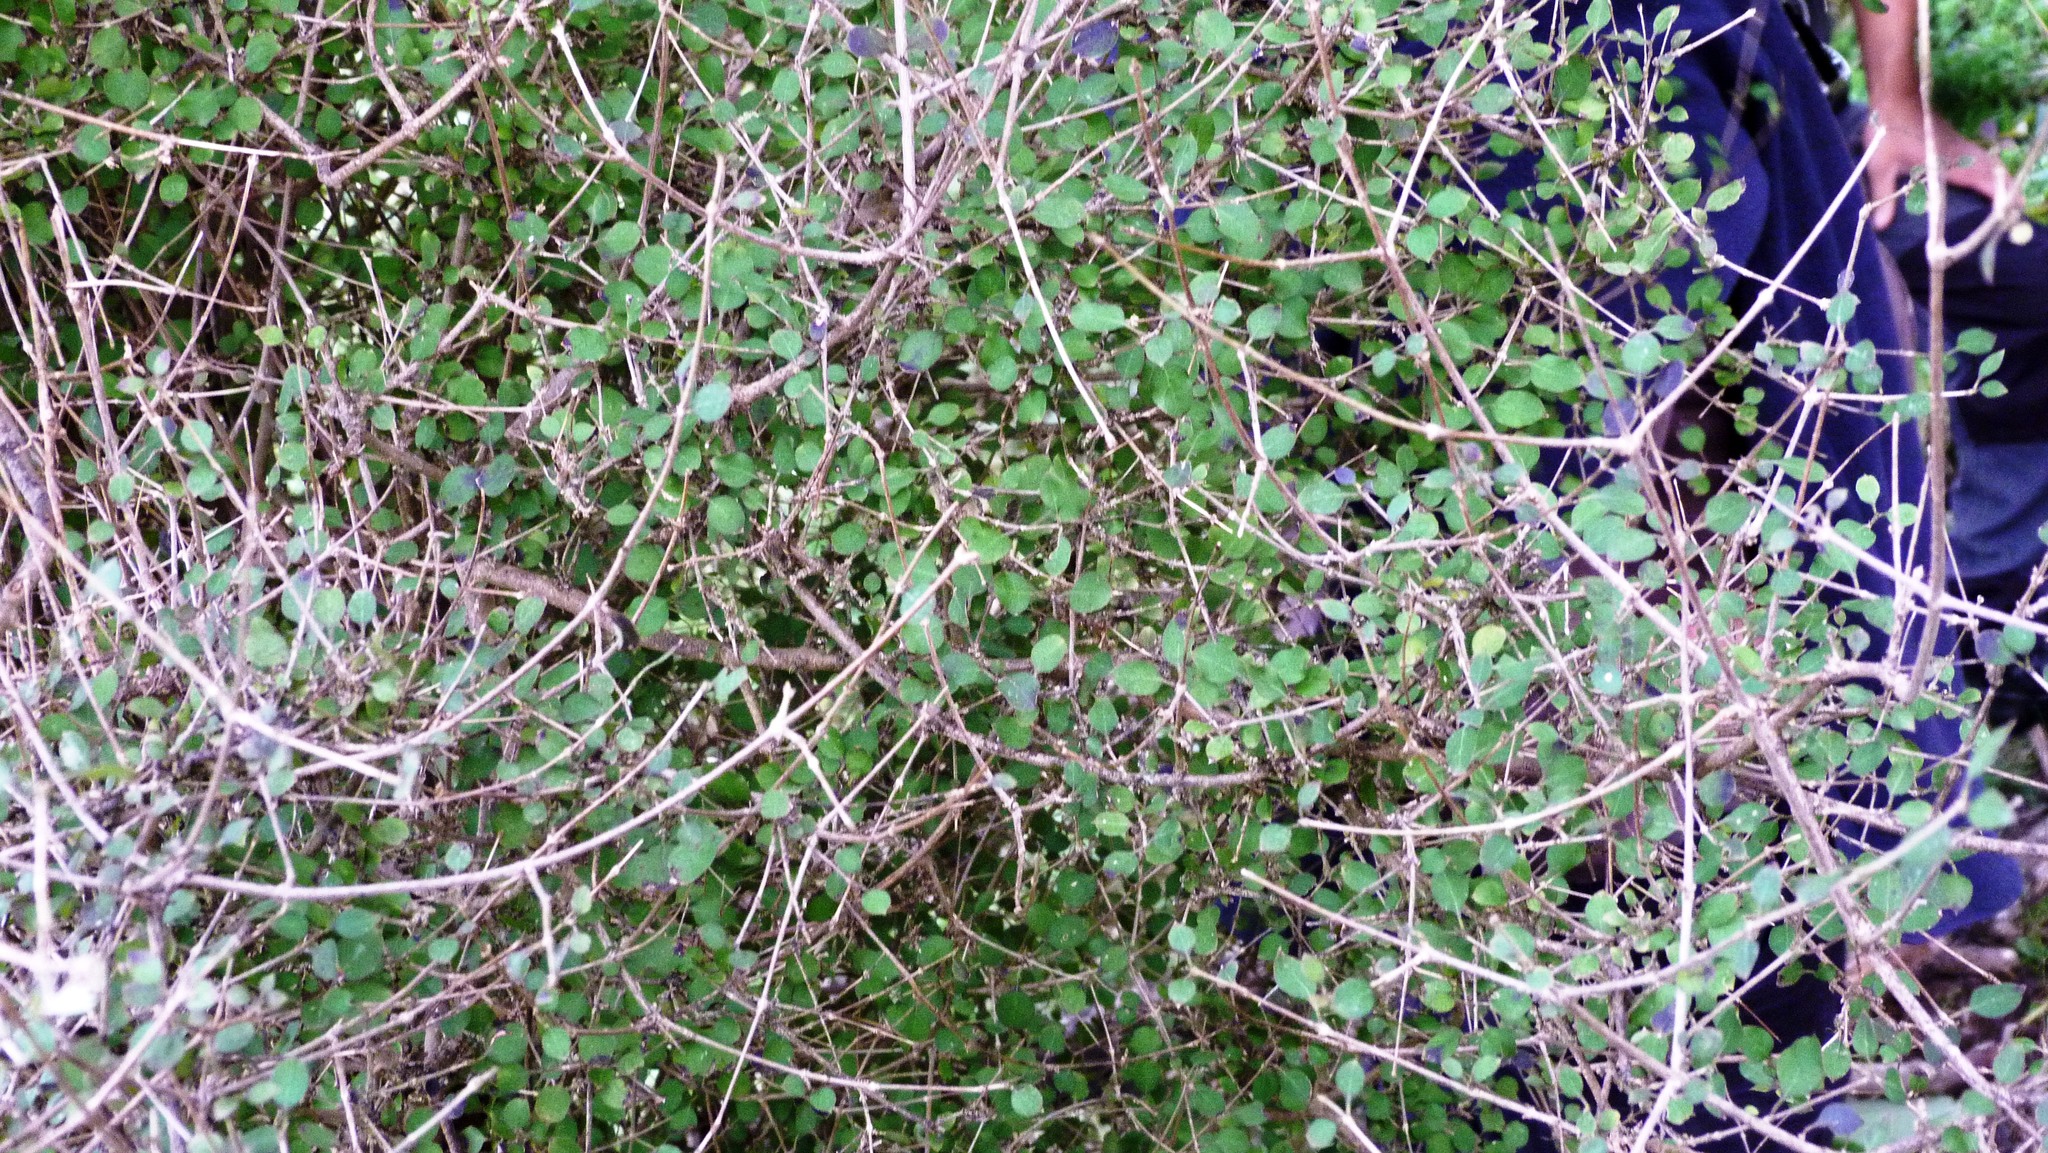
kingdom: Plantae
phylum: Tracheophyta
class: Magnoliopsida
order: Gentianales
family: Rubiaceae
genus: Coprosma
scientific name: Coprosma rotundifolia
